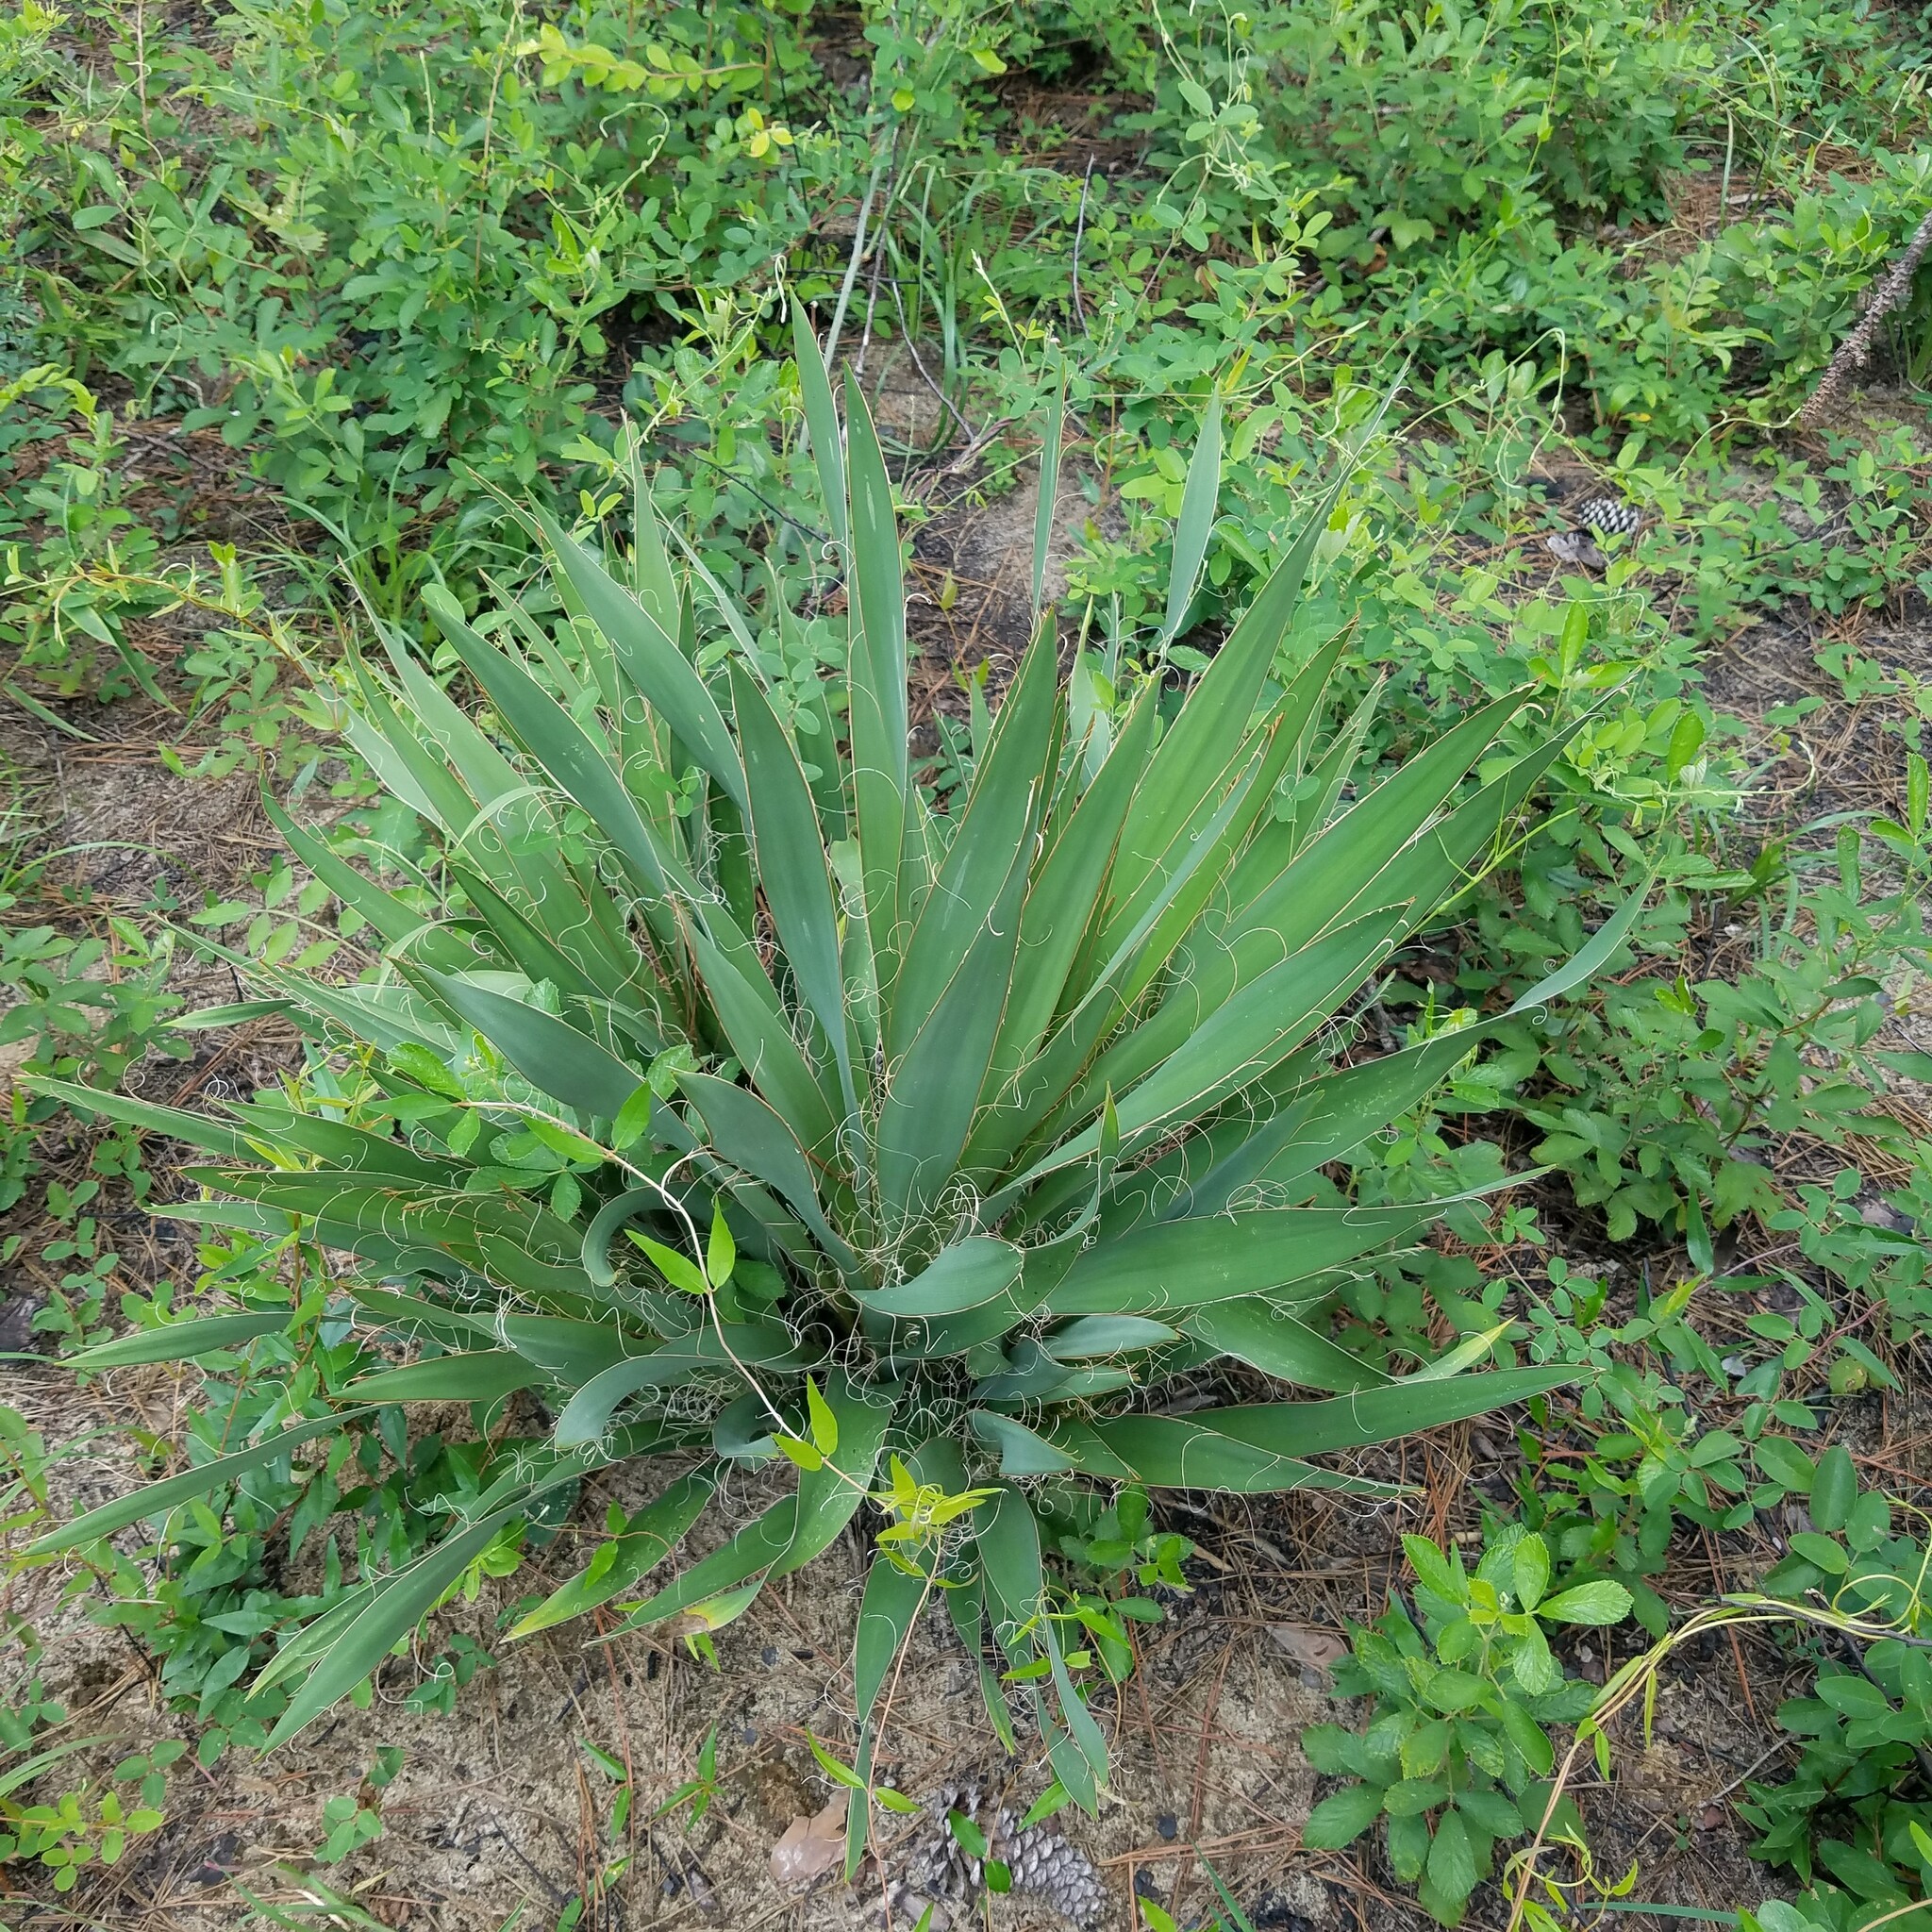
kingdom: Plantae
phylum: Tracheophyta
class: Liliopsida
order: Asparagales
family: Asparagaceae
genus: Yucca
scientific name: Yucca filamentosa
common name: Adam's-needle
